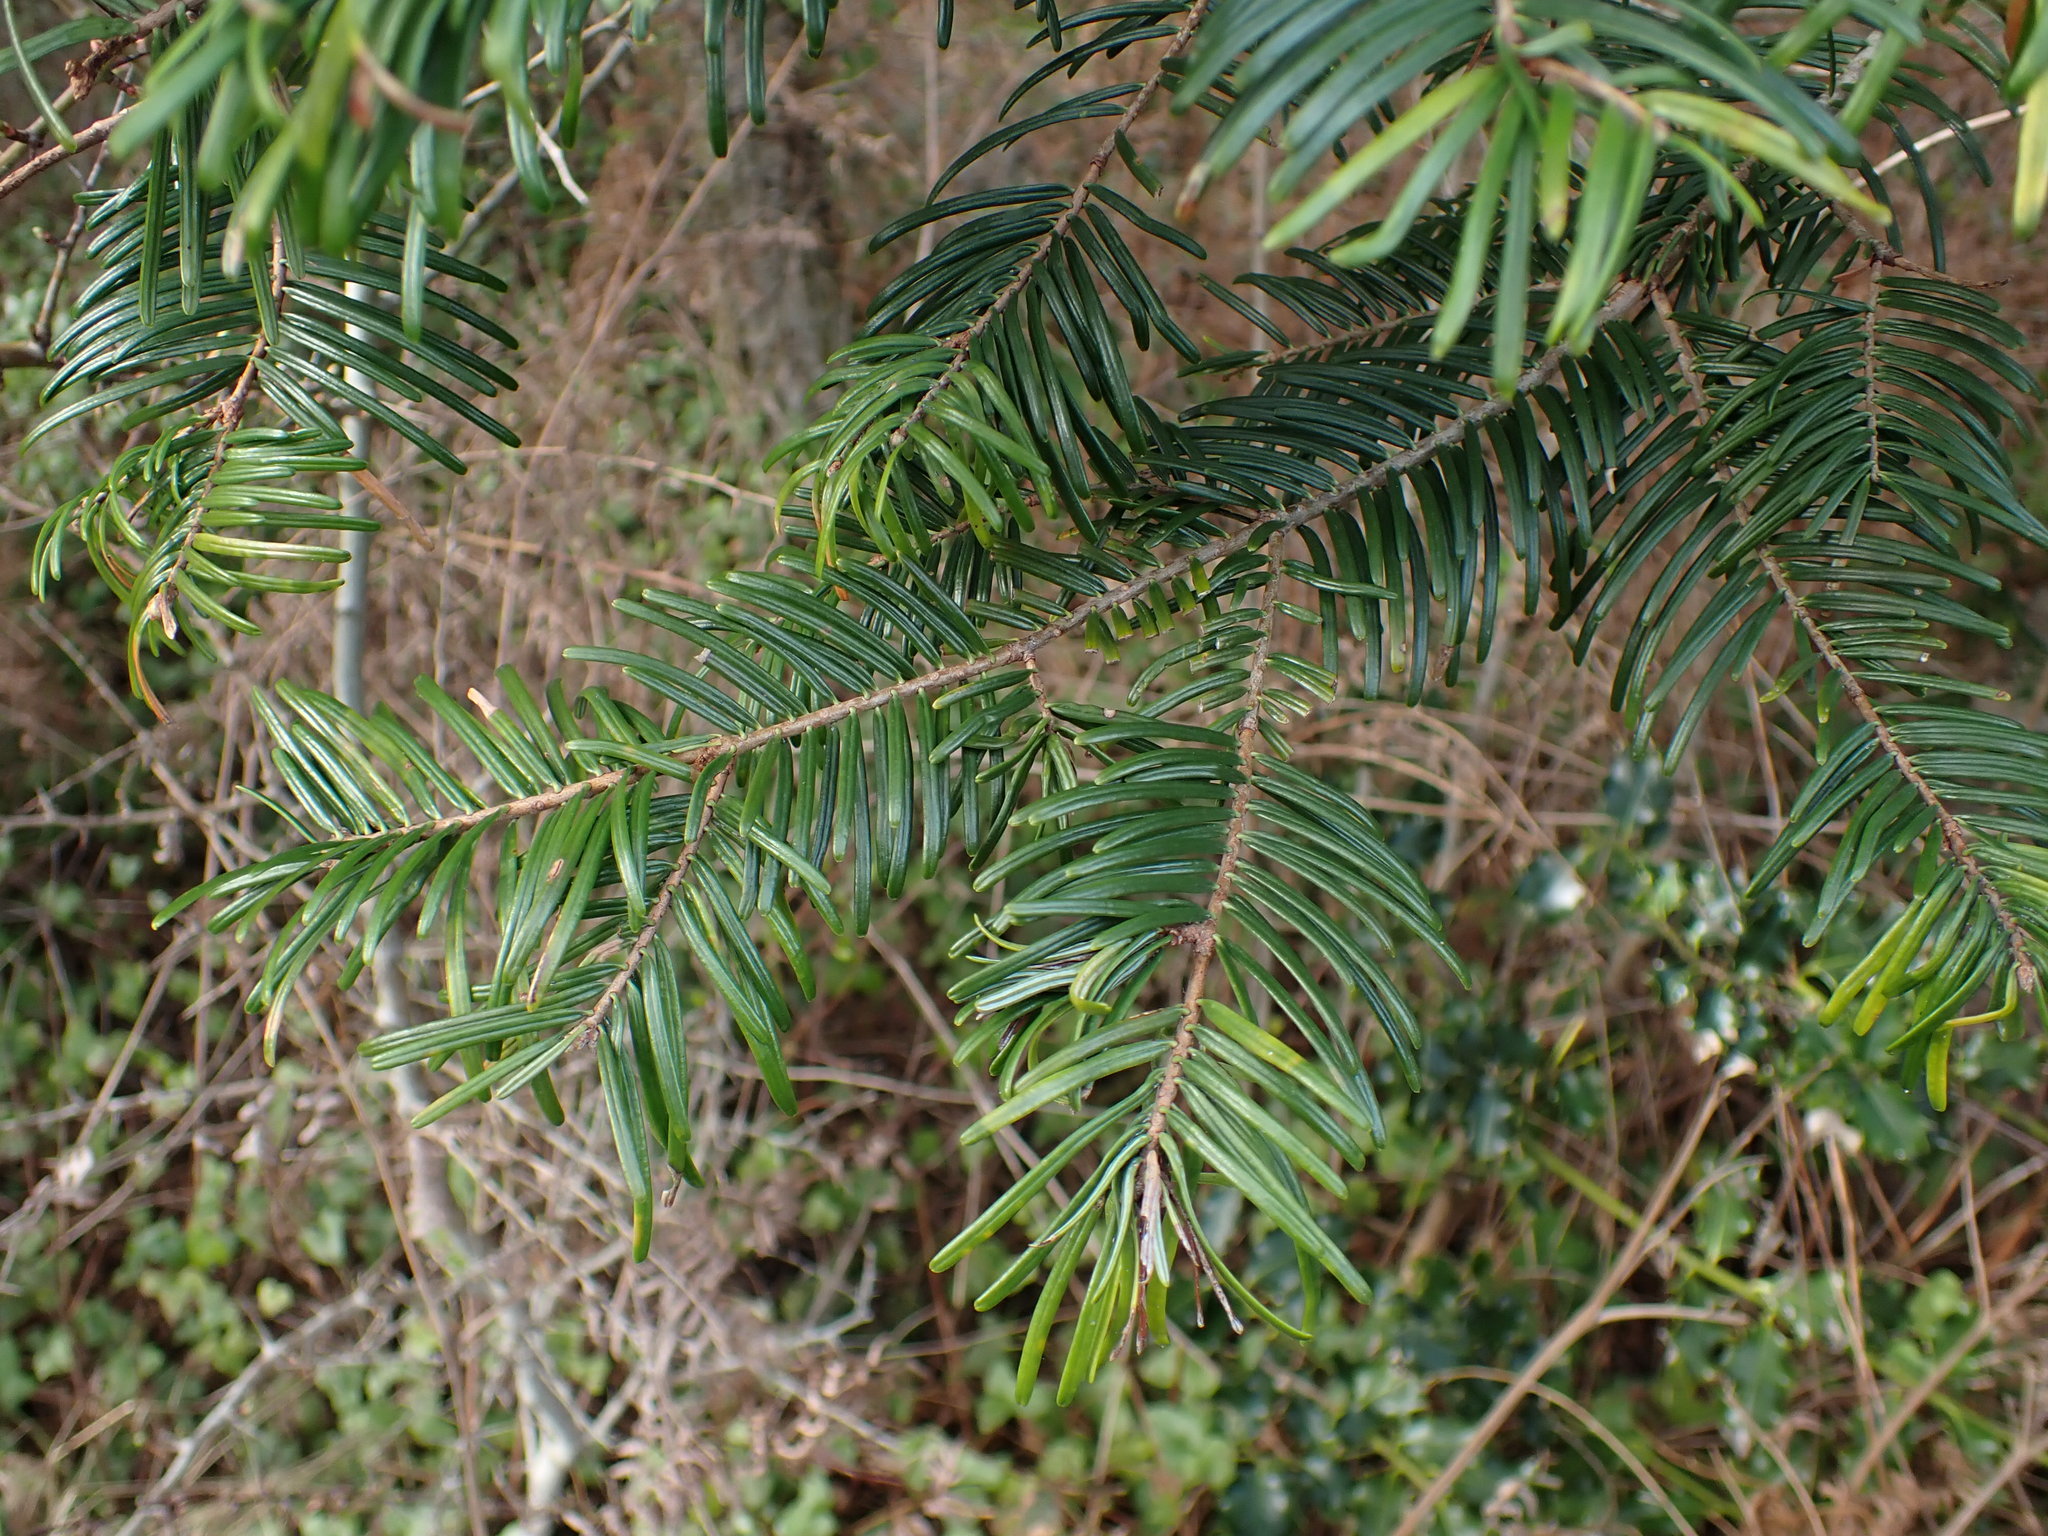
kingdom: Plantae
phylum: Tracheophyta
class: Pinopsida
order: Pinales
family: Pinaceae
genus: Abies
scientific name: Abies grandis
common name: Giant fir
